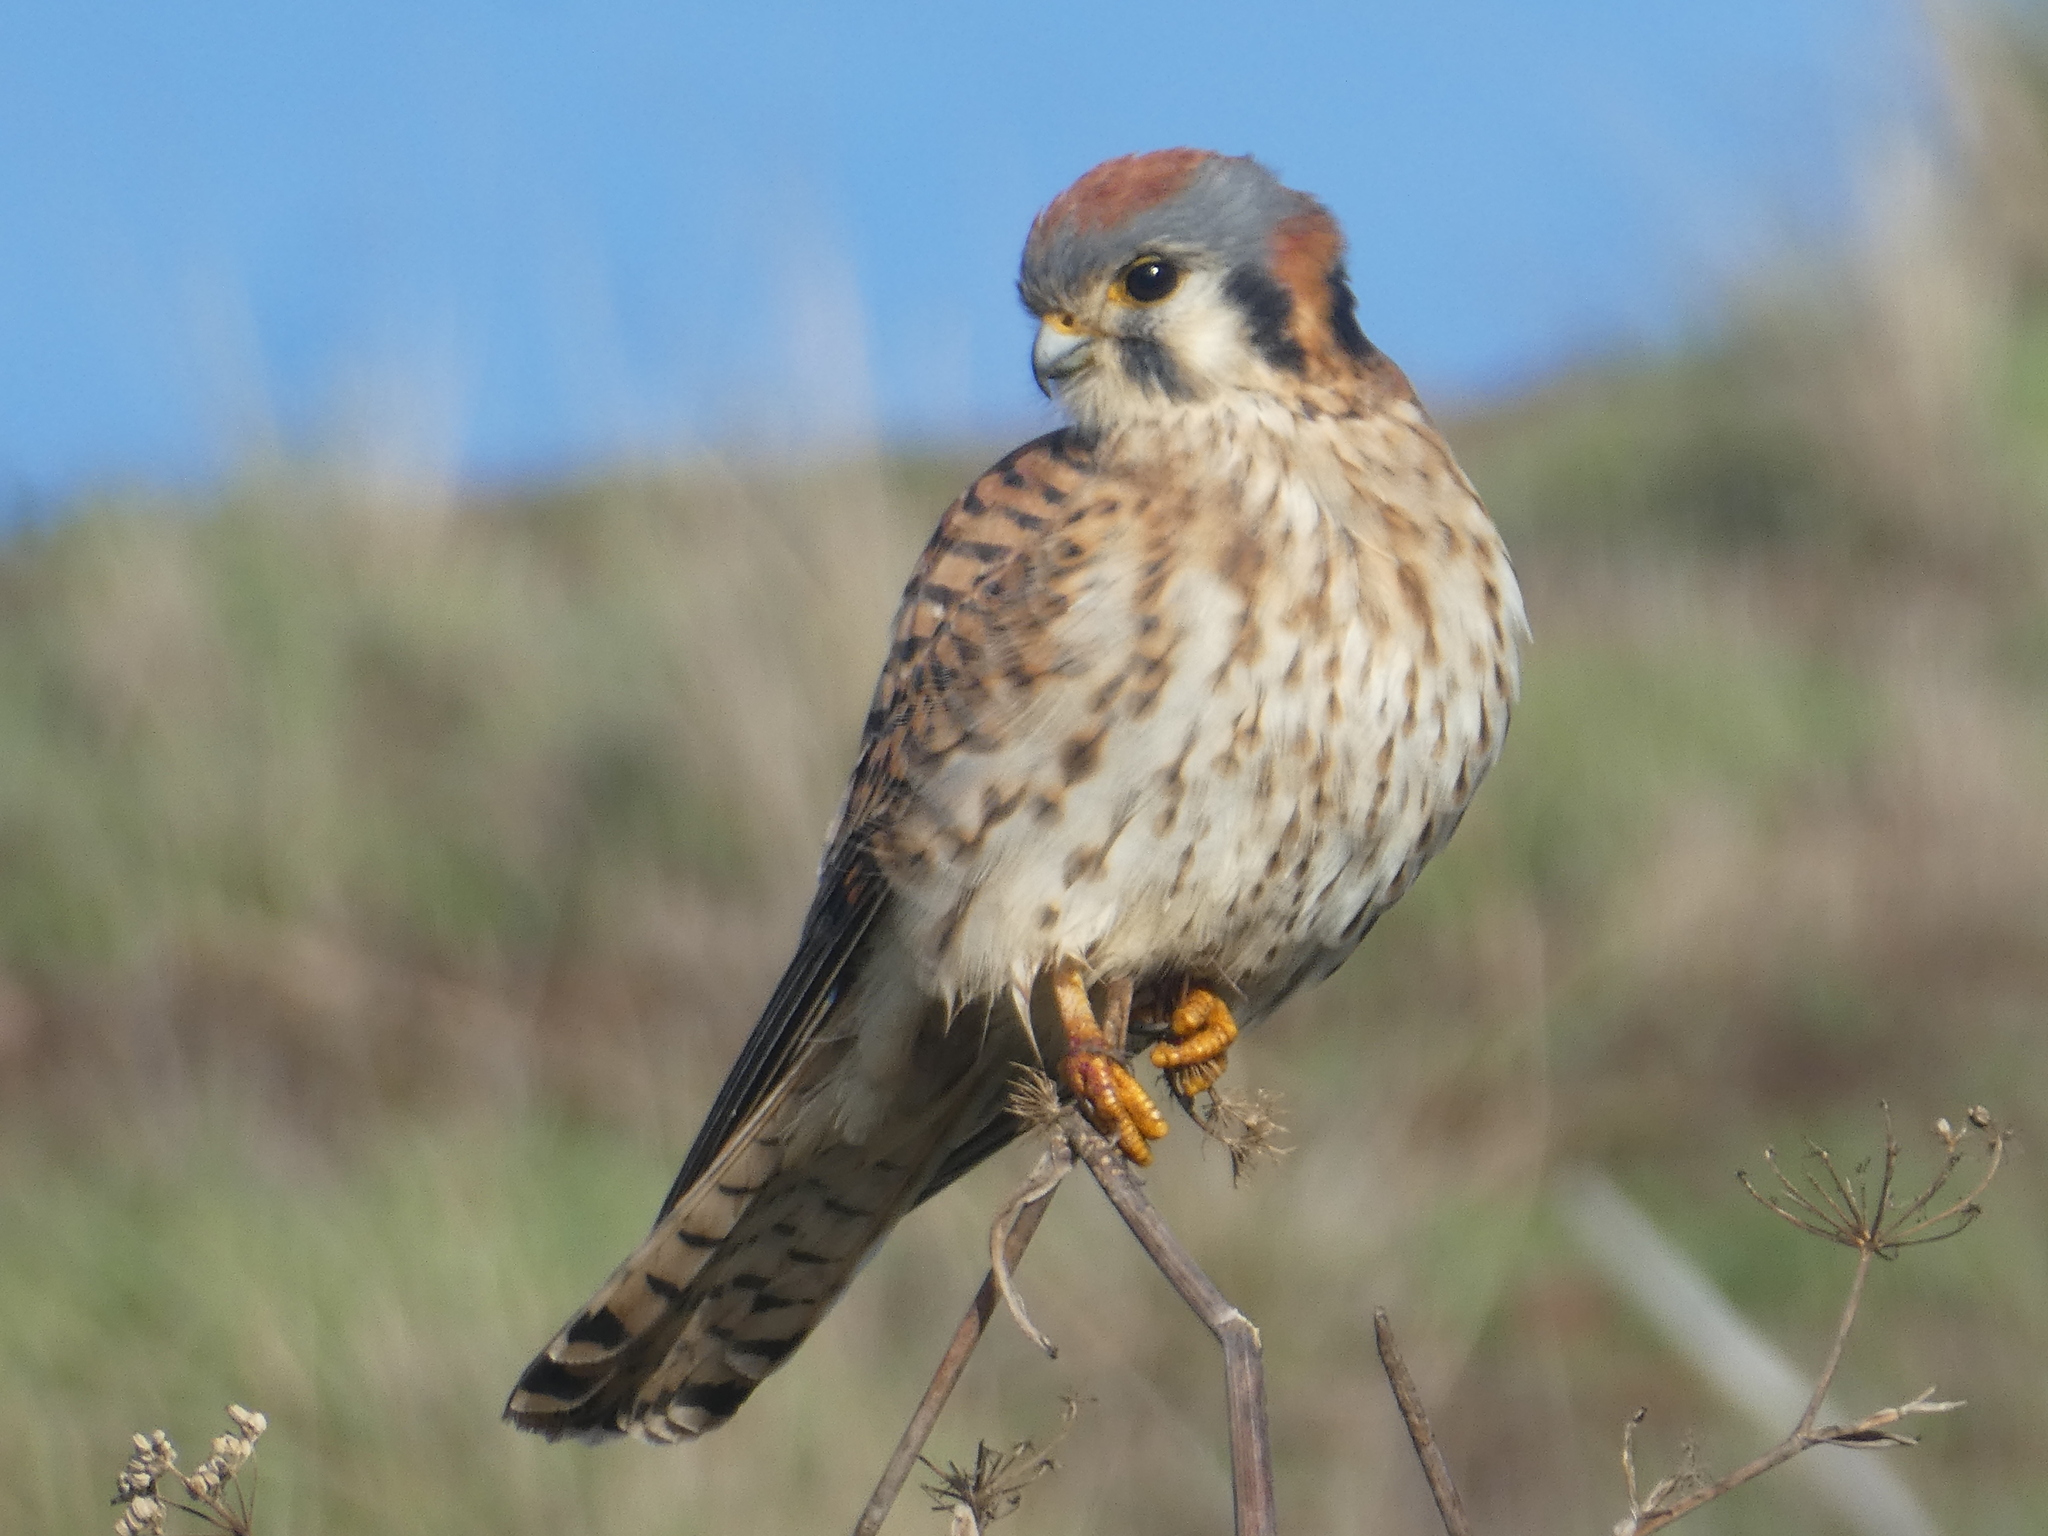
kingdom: Animalia
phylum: Chordata
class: Aves
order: Falconiformes
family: Falconidae
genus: Falco
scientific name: Falco sparverius
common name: American kestrel
